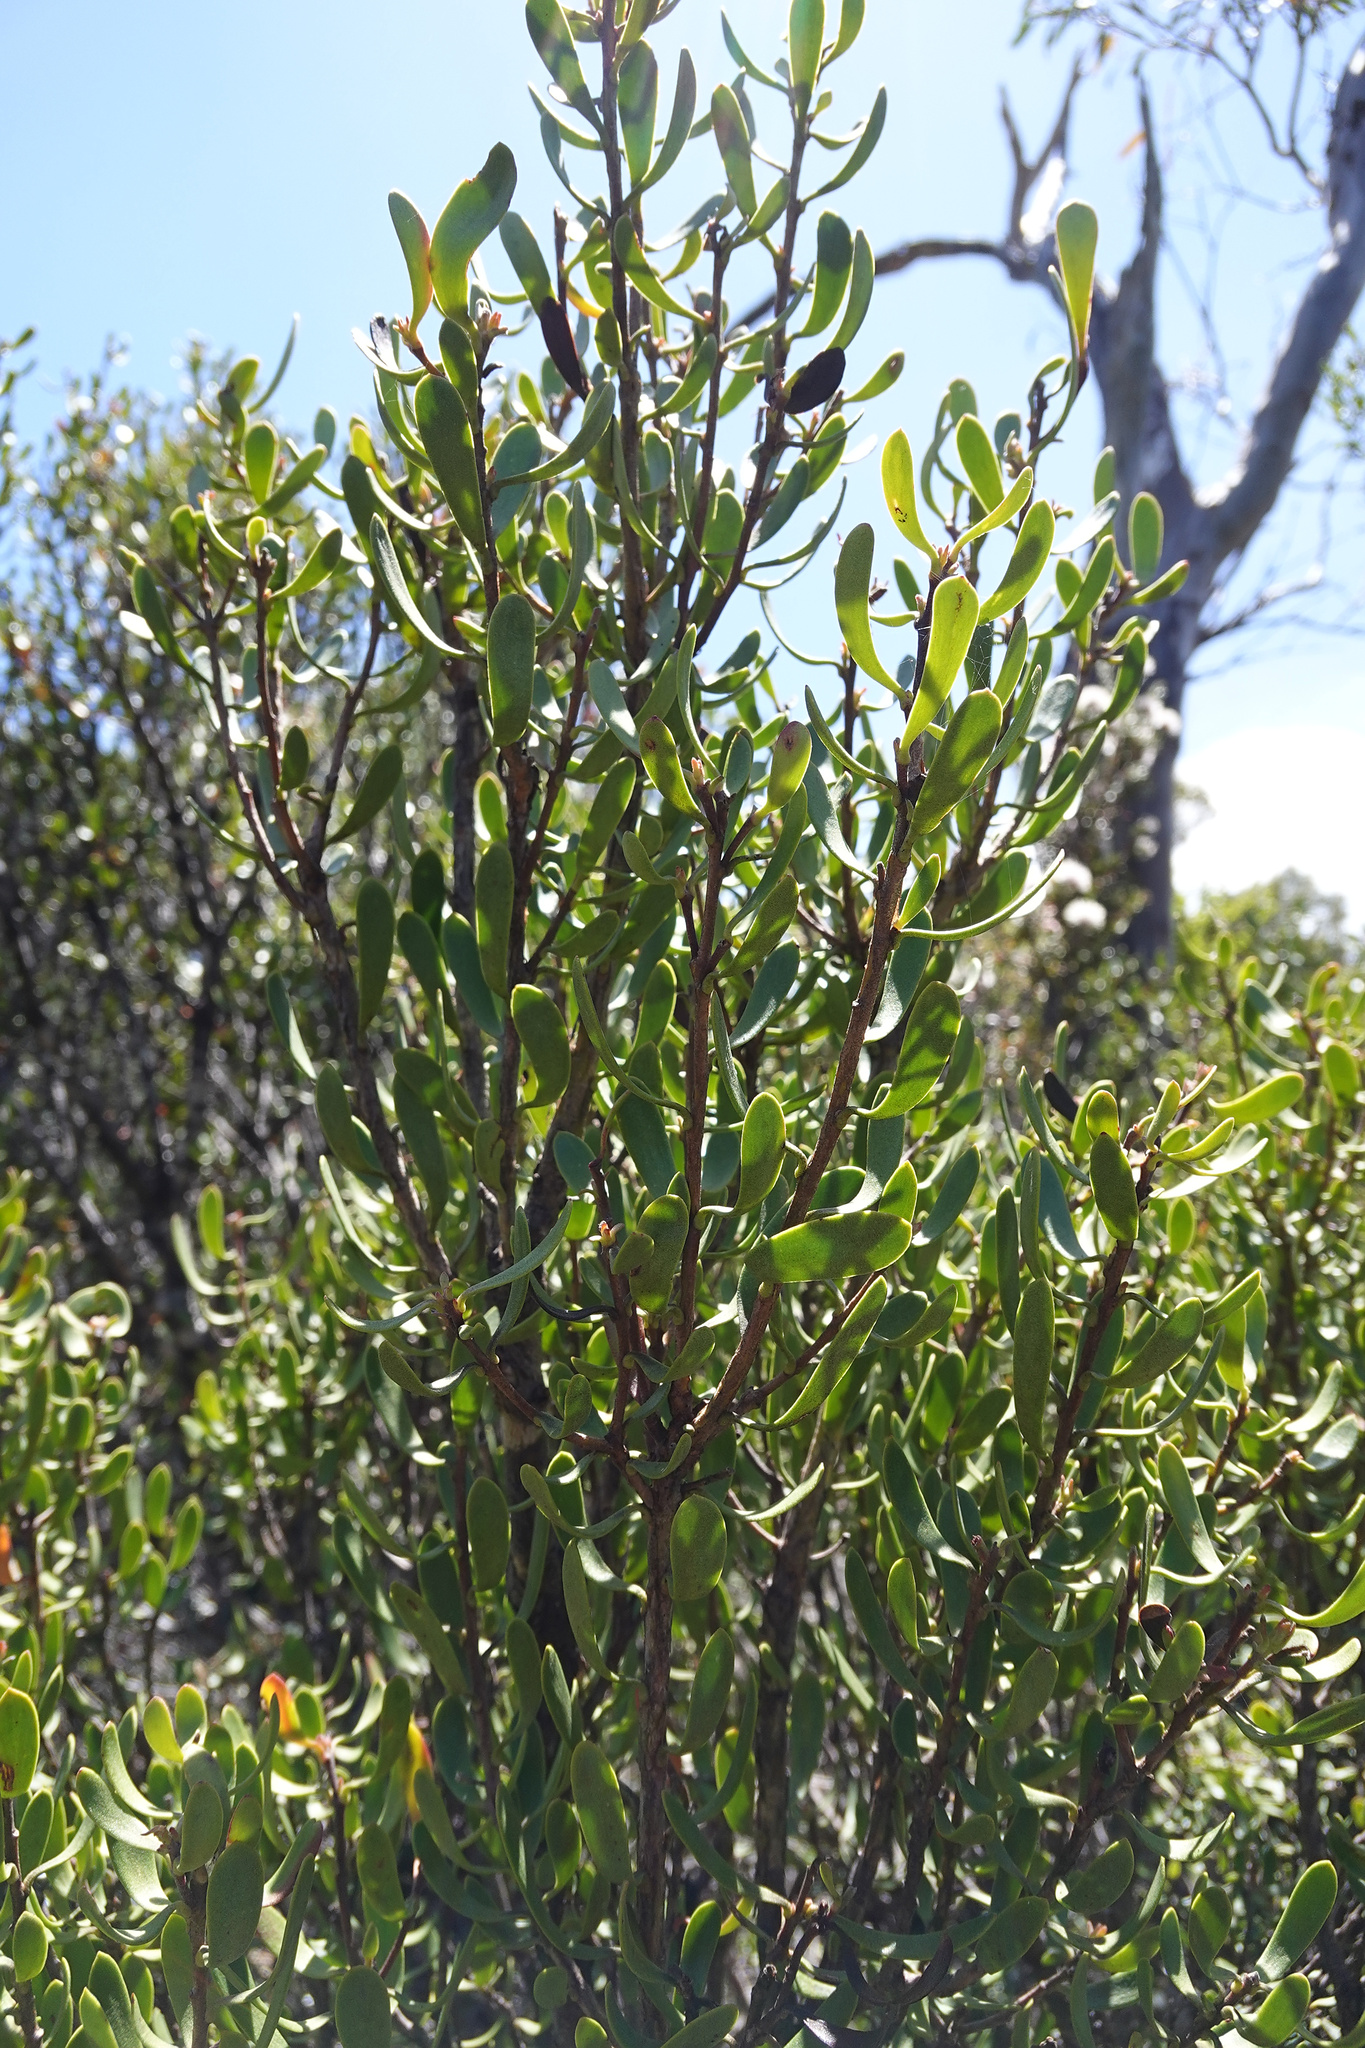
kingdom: Plantae
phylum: Tracheophyta
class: Magnoliopsida
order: Proteales
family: Proteaceae
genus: Persoonia
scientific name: Persoonia gunnii
